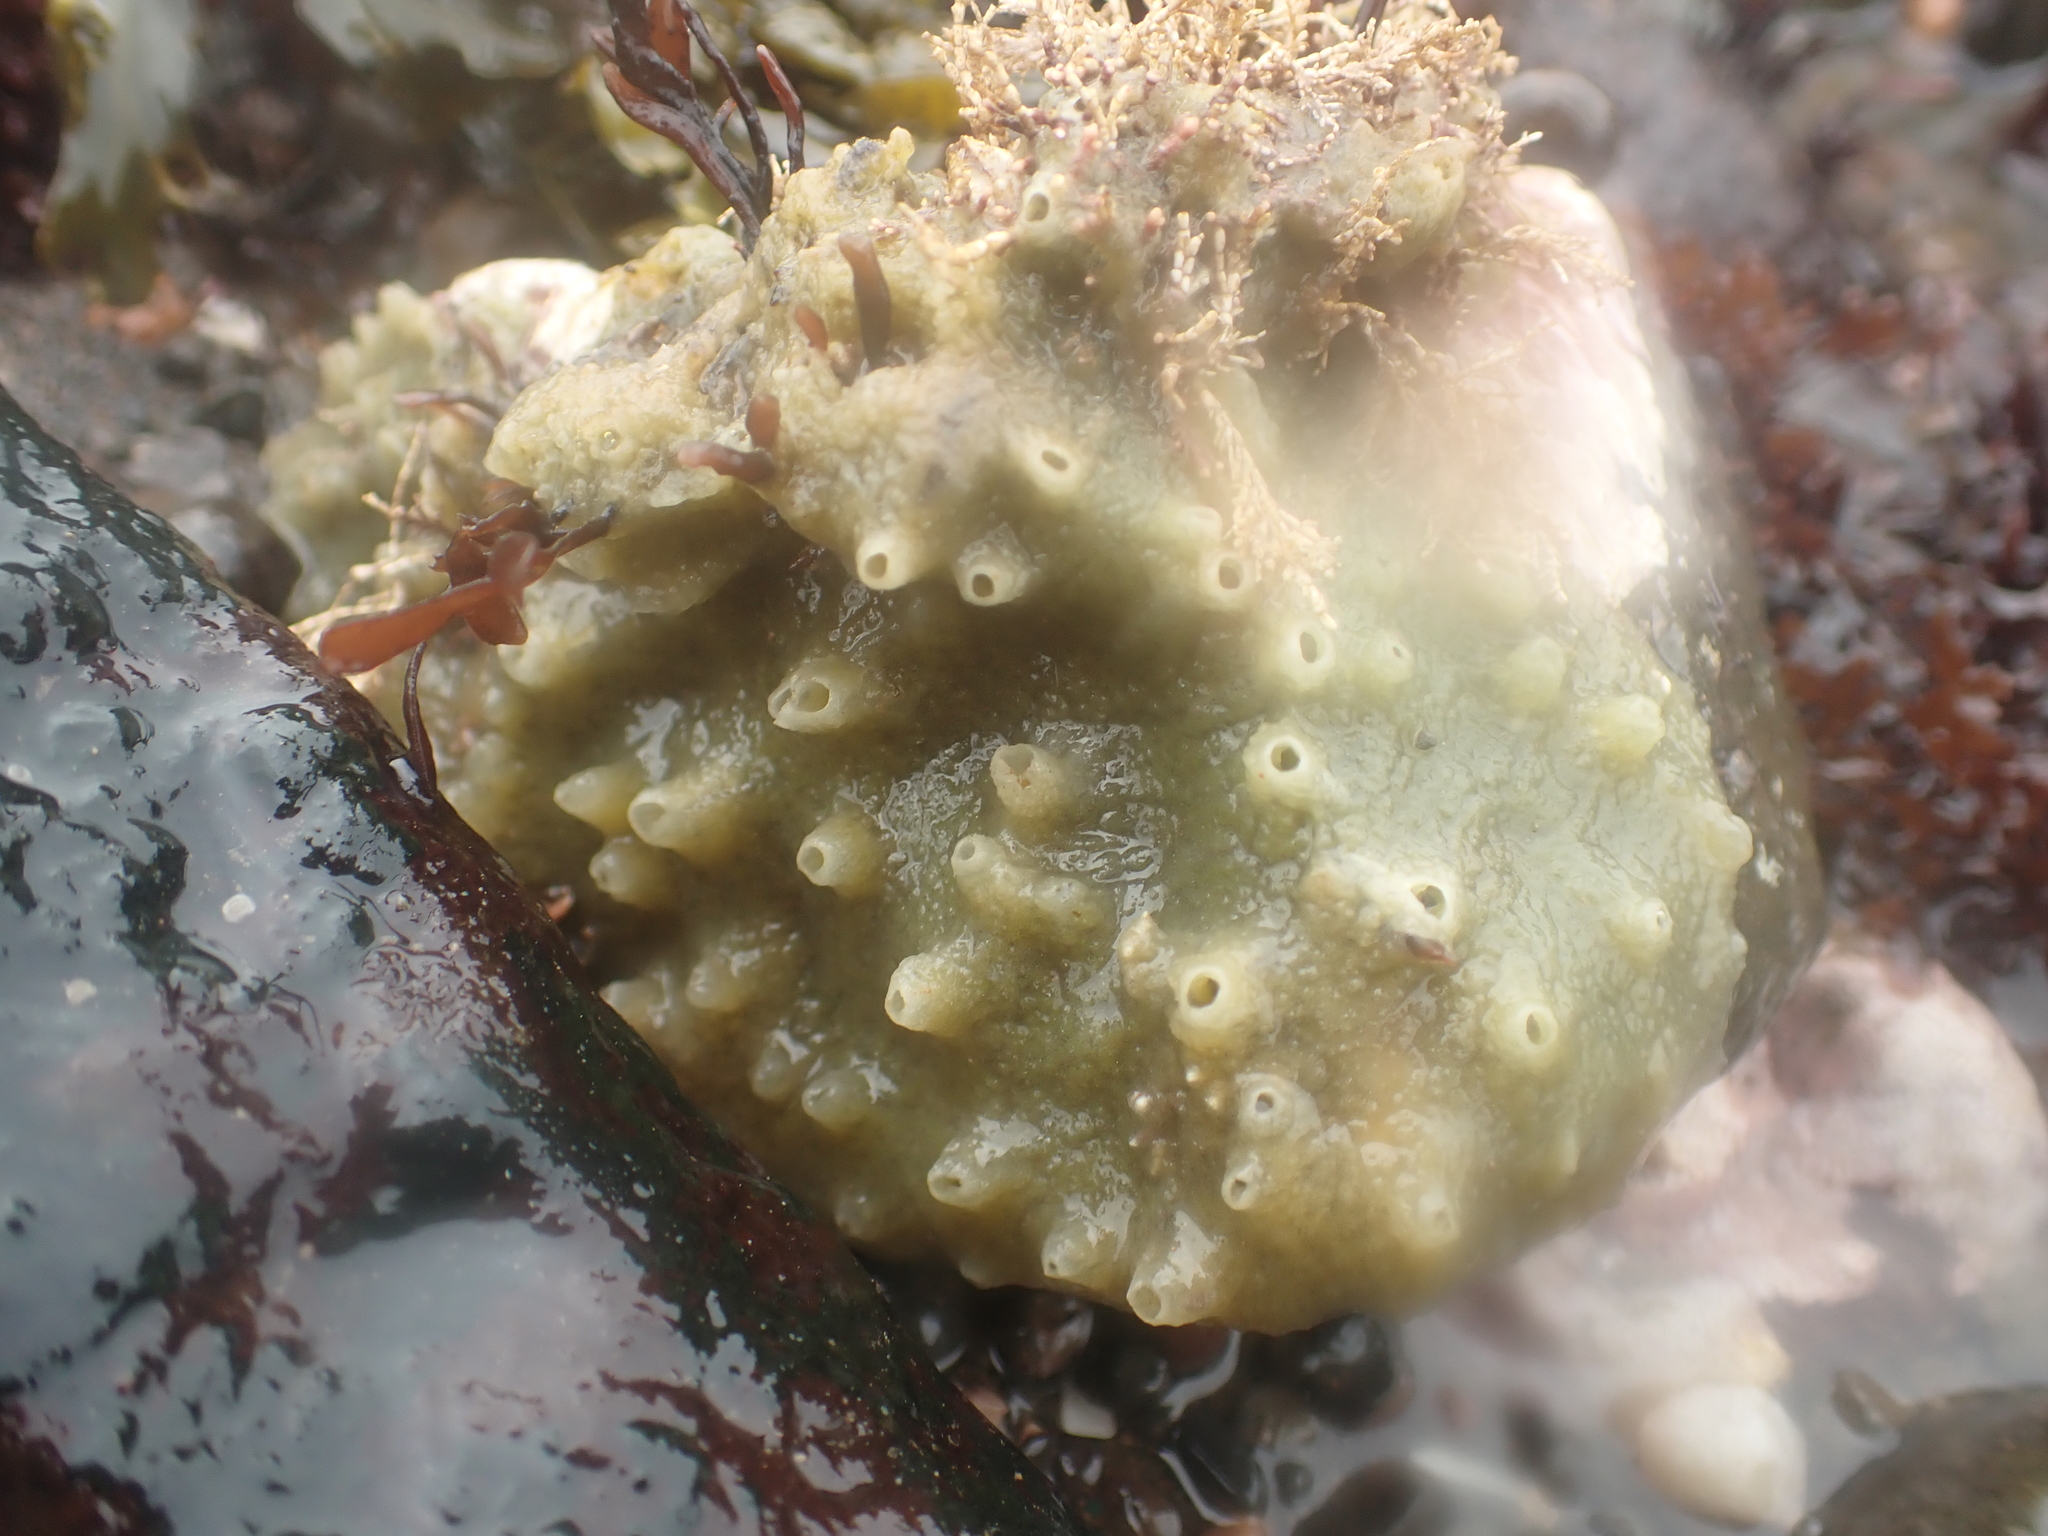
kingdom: Animalia
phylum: Porifera
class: Demospongiae
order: Suberitida
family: Halichondriidae
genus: Halichondria
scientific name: Halichondria panicea
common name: Breadcrumb sponge
